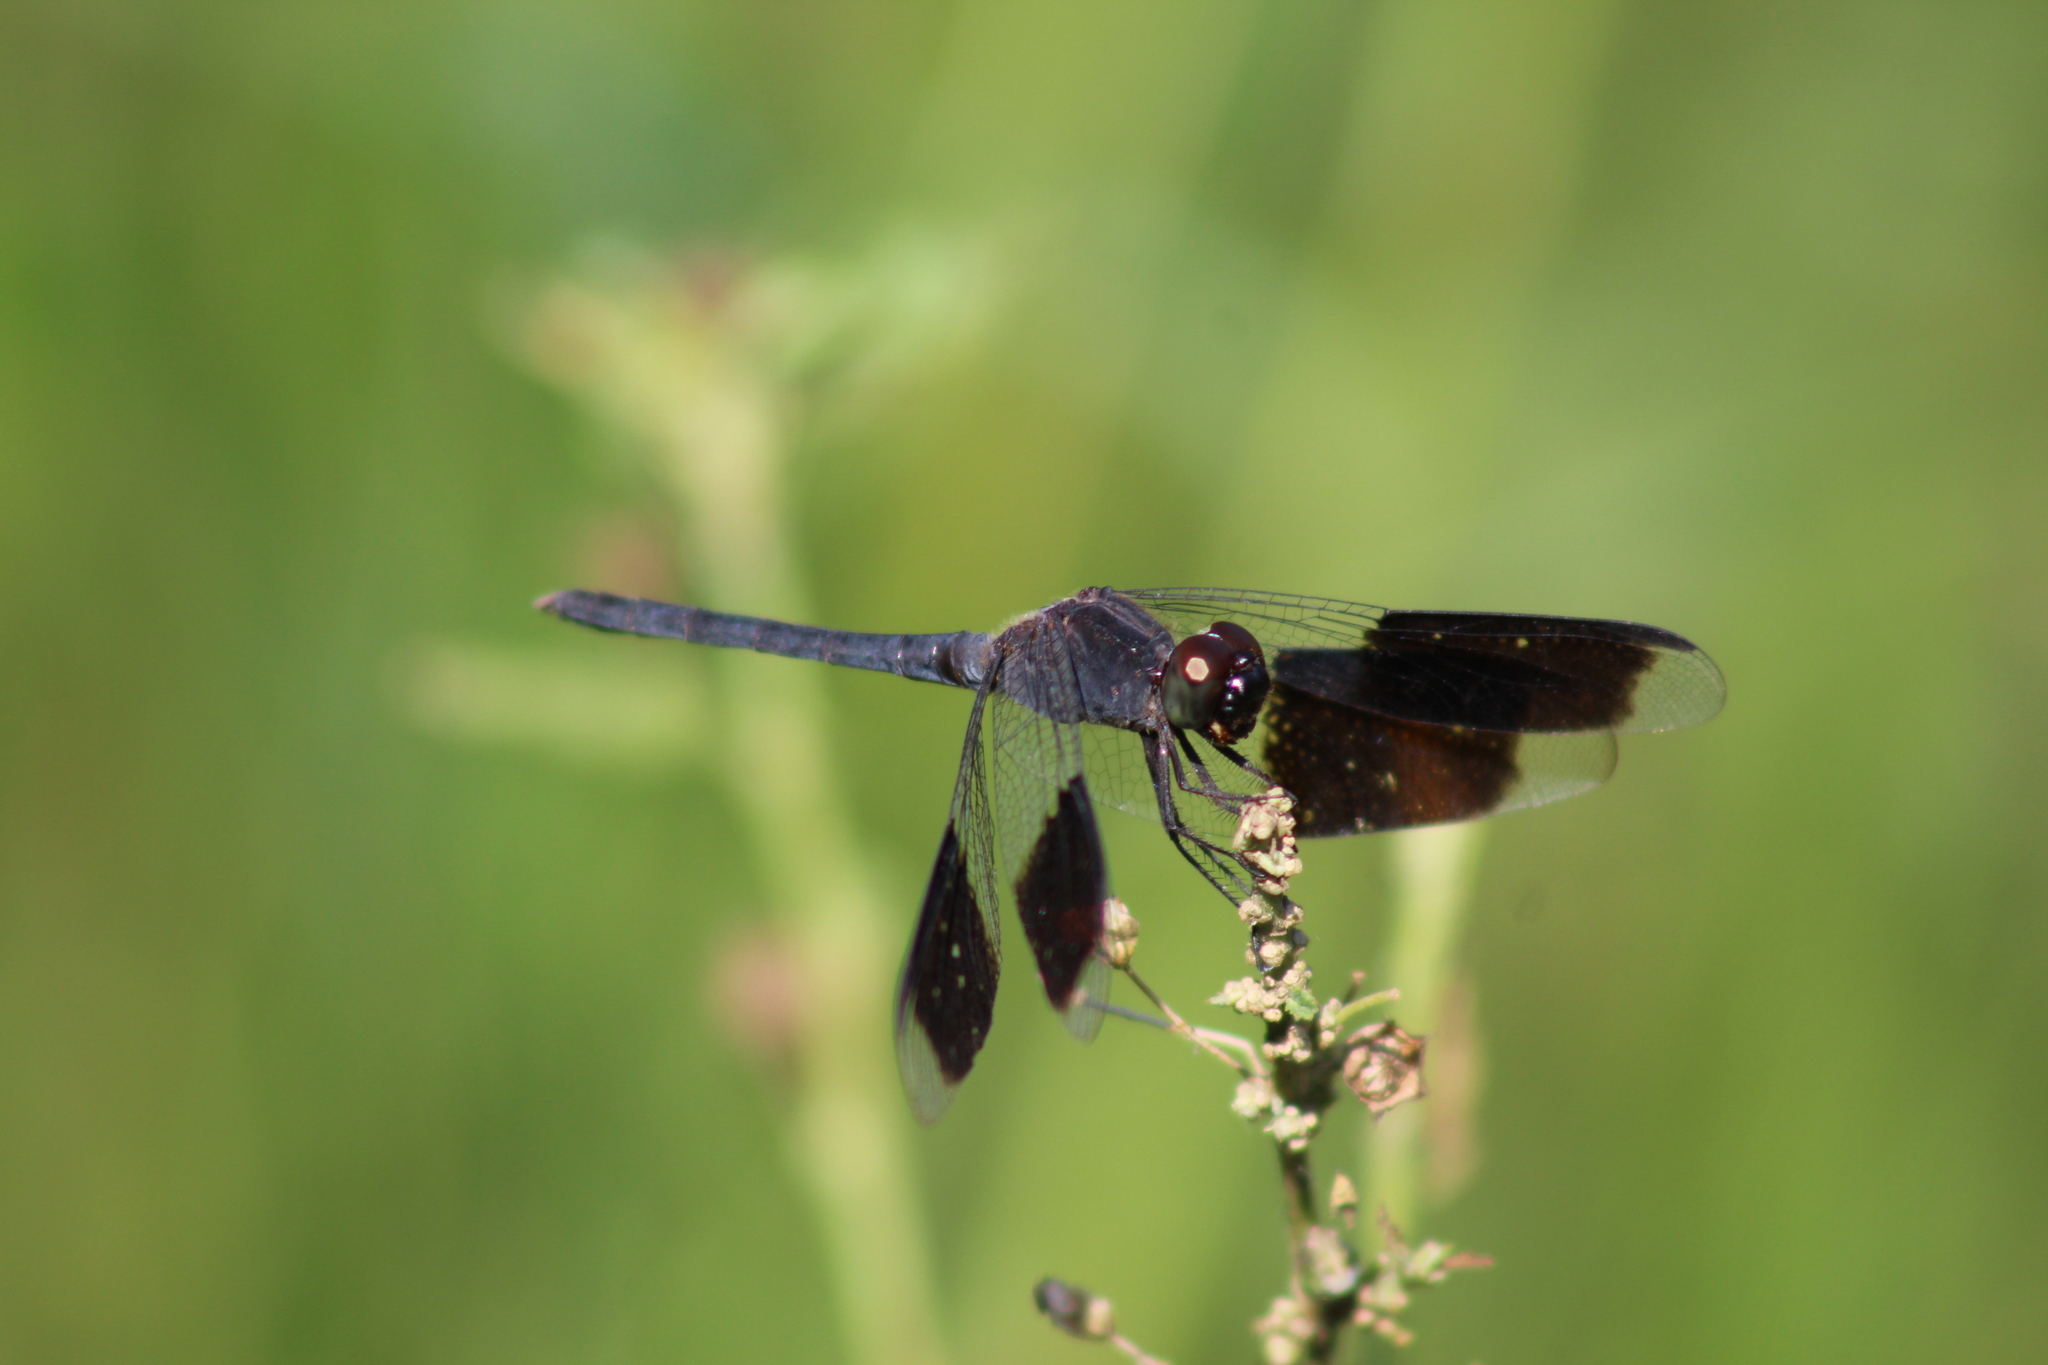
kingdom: Animalia
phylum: Arthropoda
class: Insecta
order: Odonata
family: Libellulidae
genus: Erythrodiplax
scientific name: Erythrodiplax umbrata
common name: Band-winged dragonlet
